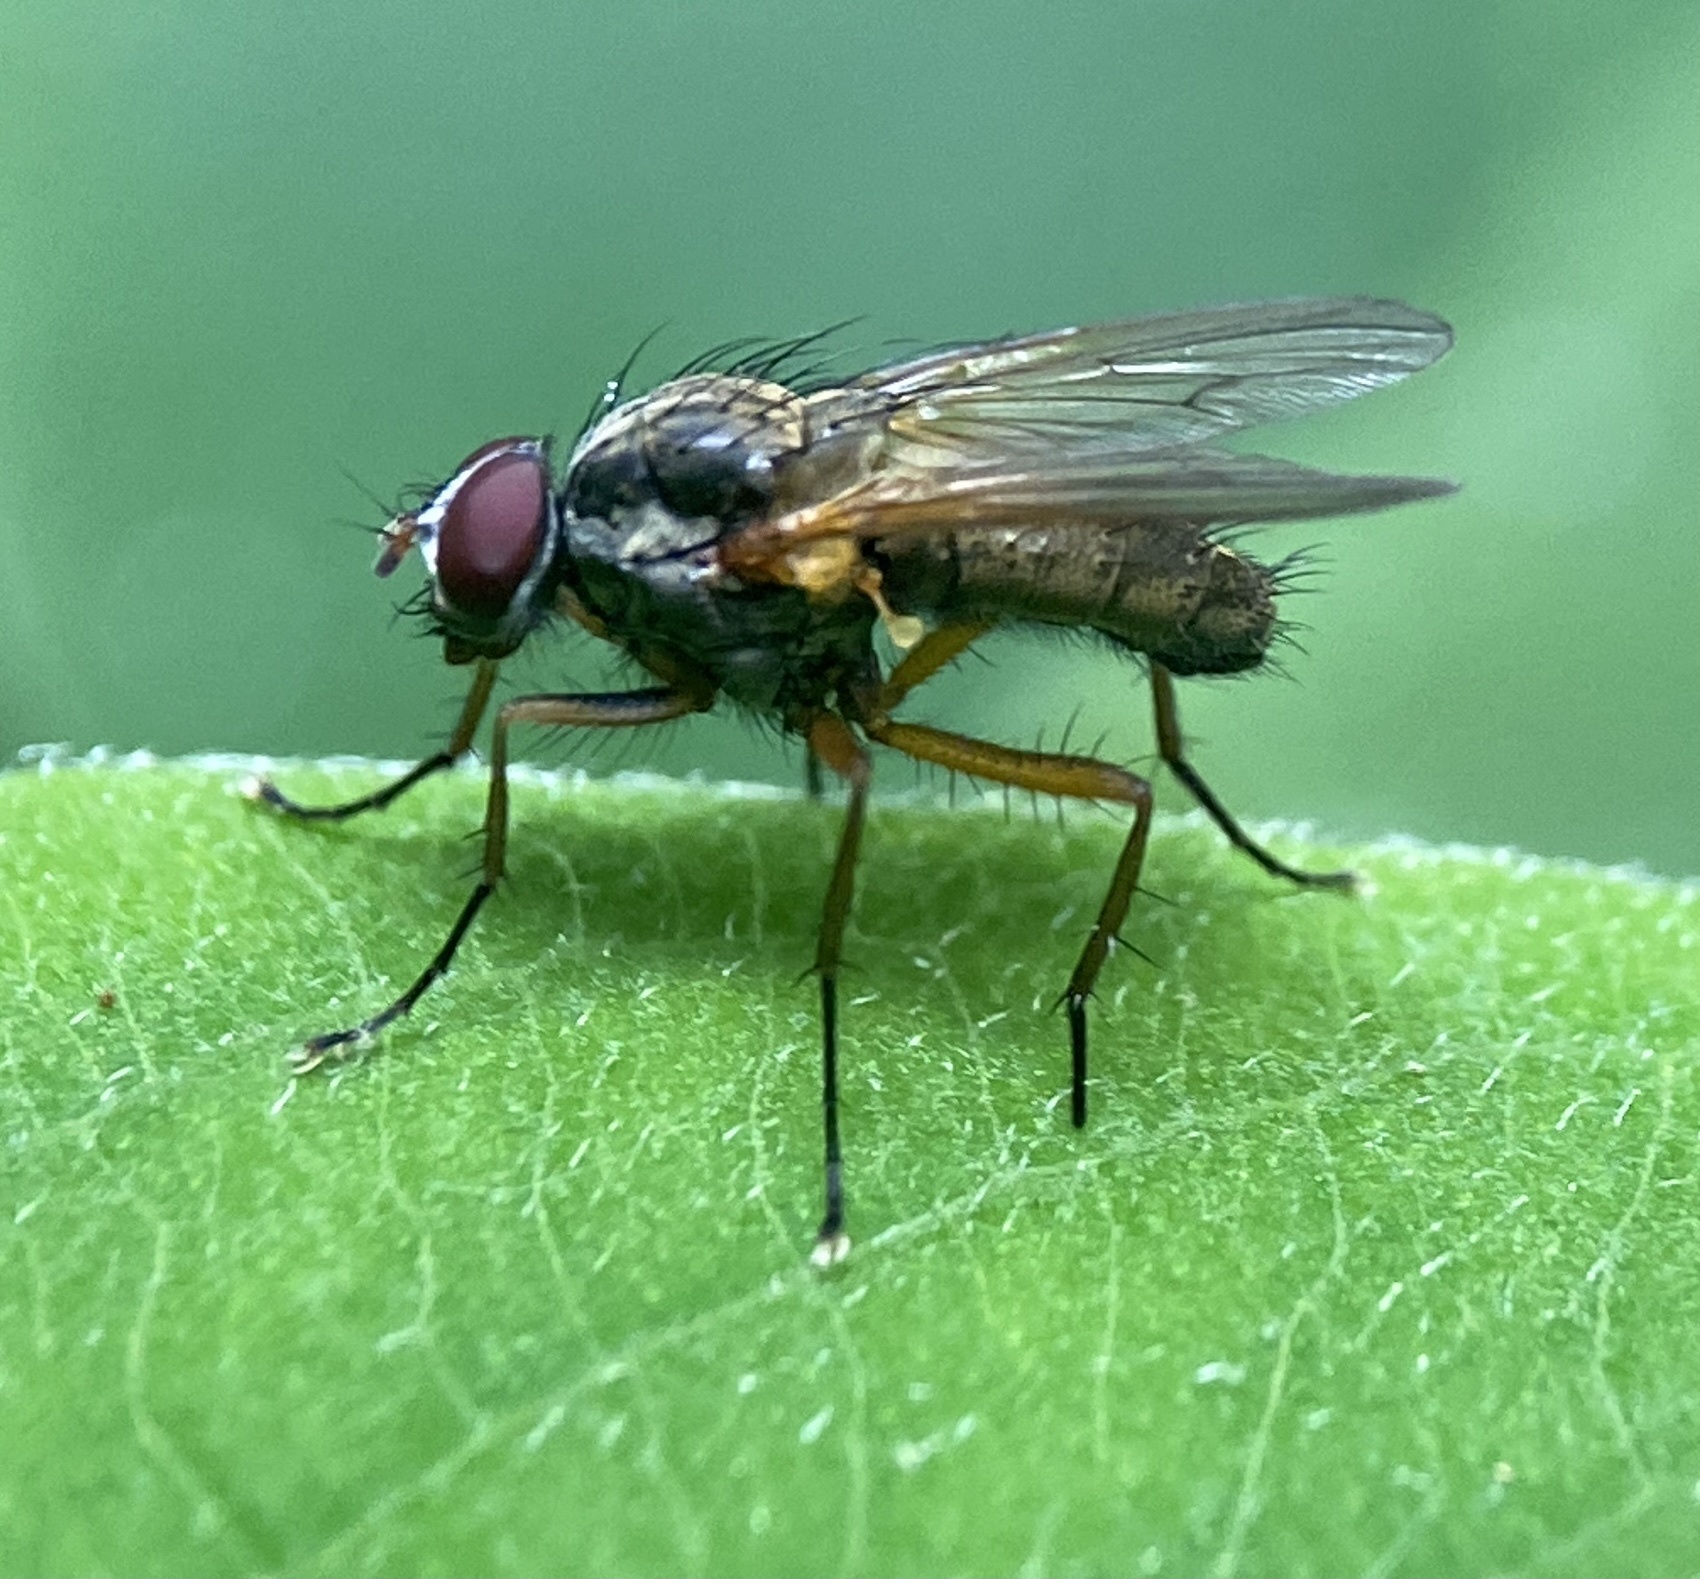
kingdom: Animalia
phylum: Arthropoda
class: Insecta
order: Diptera
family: Anthomyiidae
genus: Eutrichota
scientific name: Eutrichota
